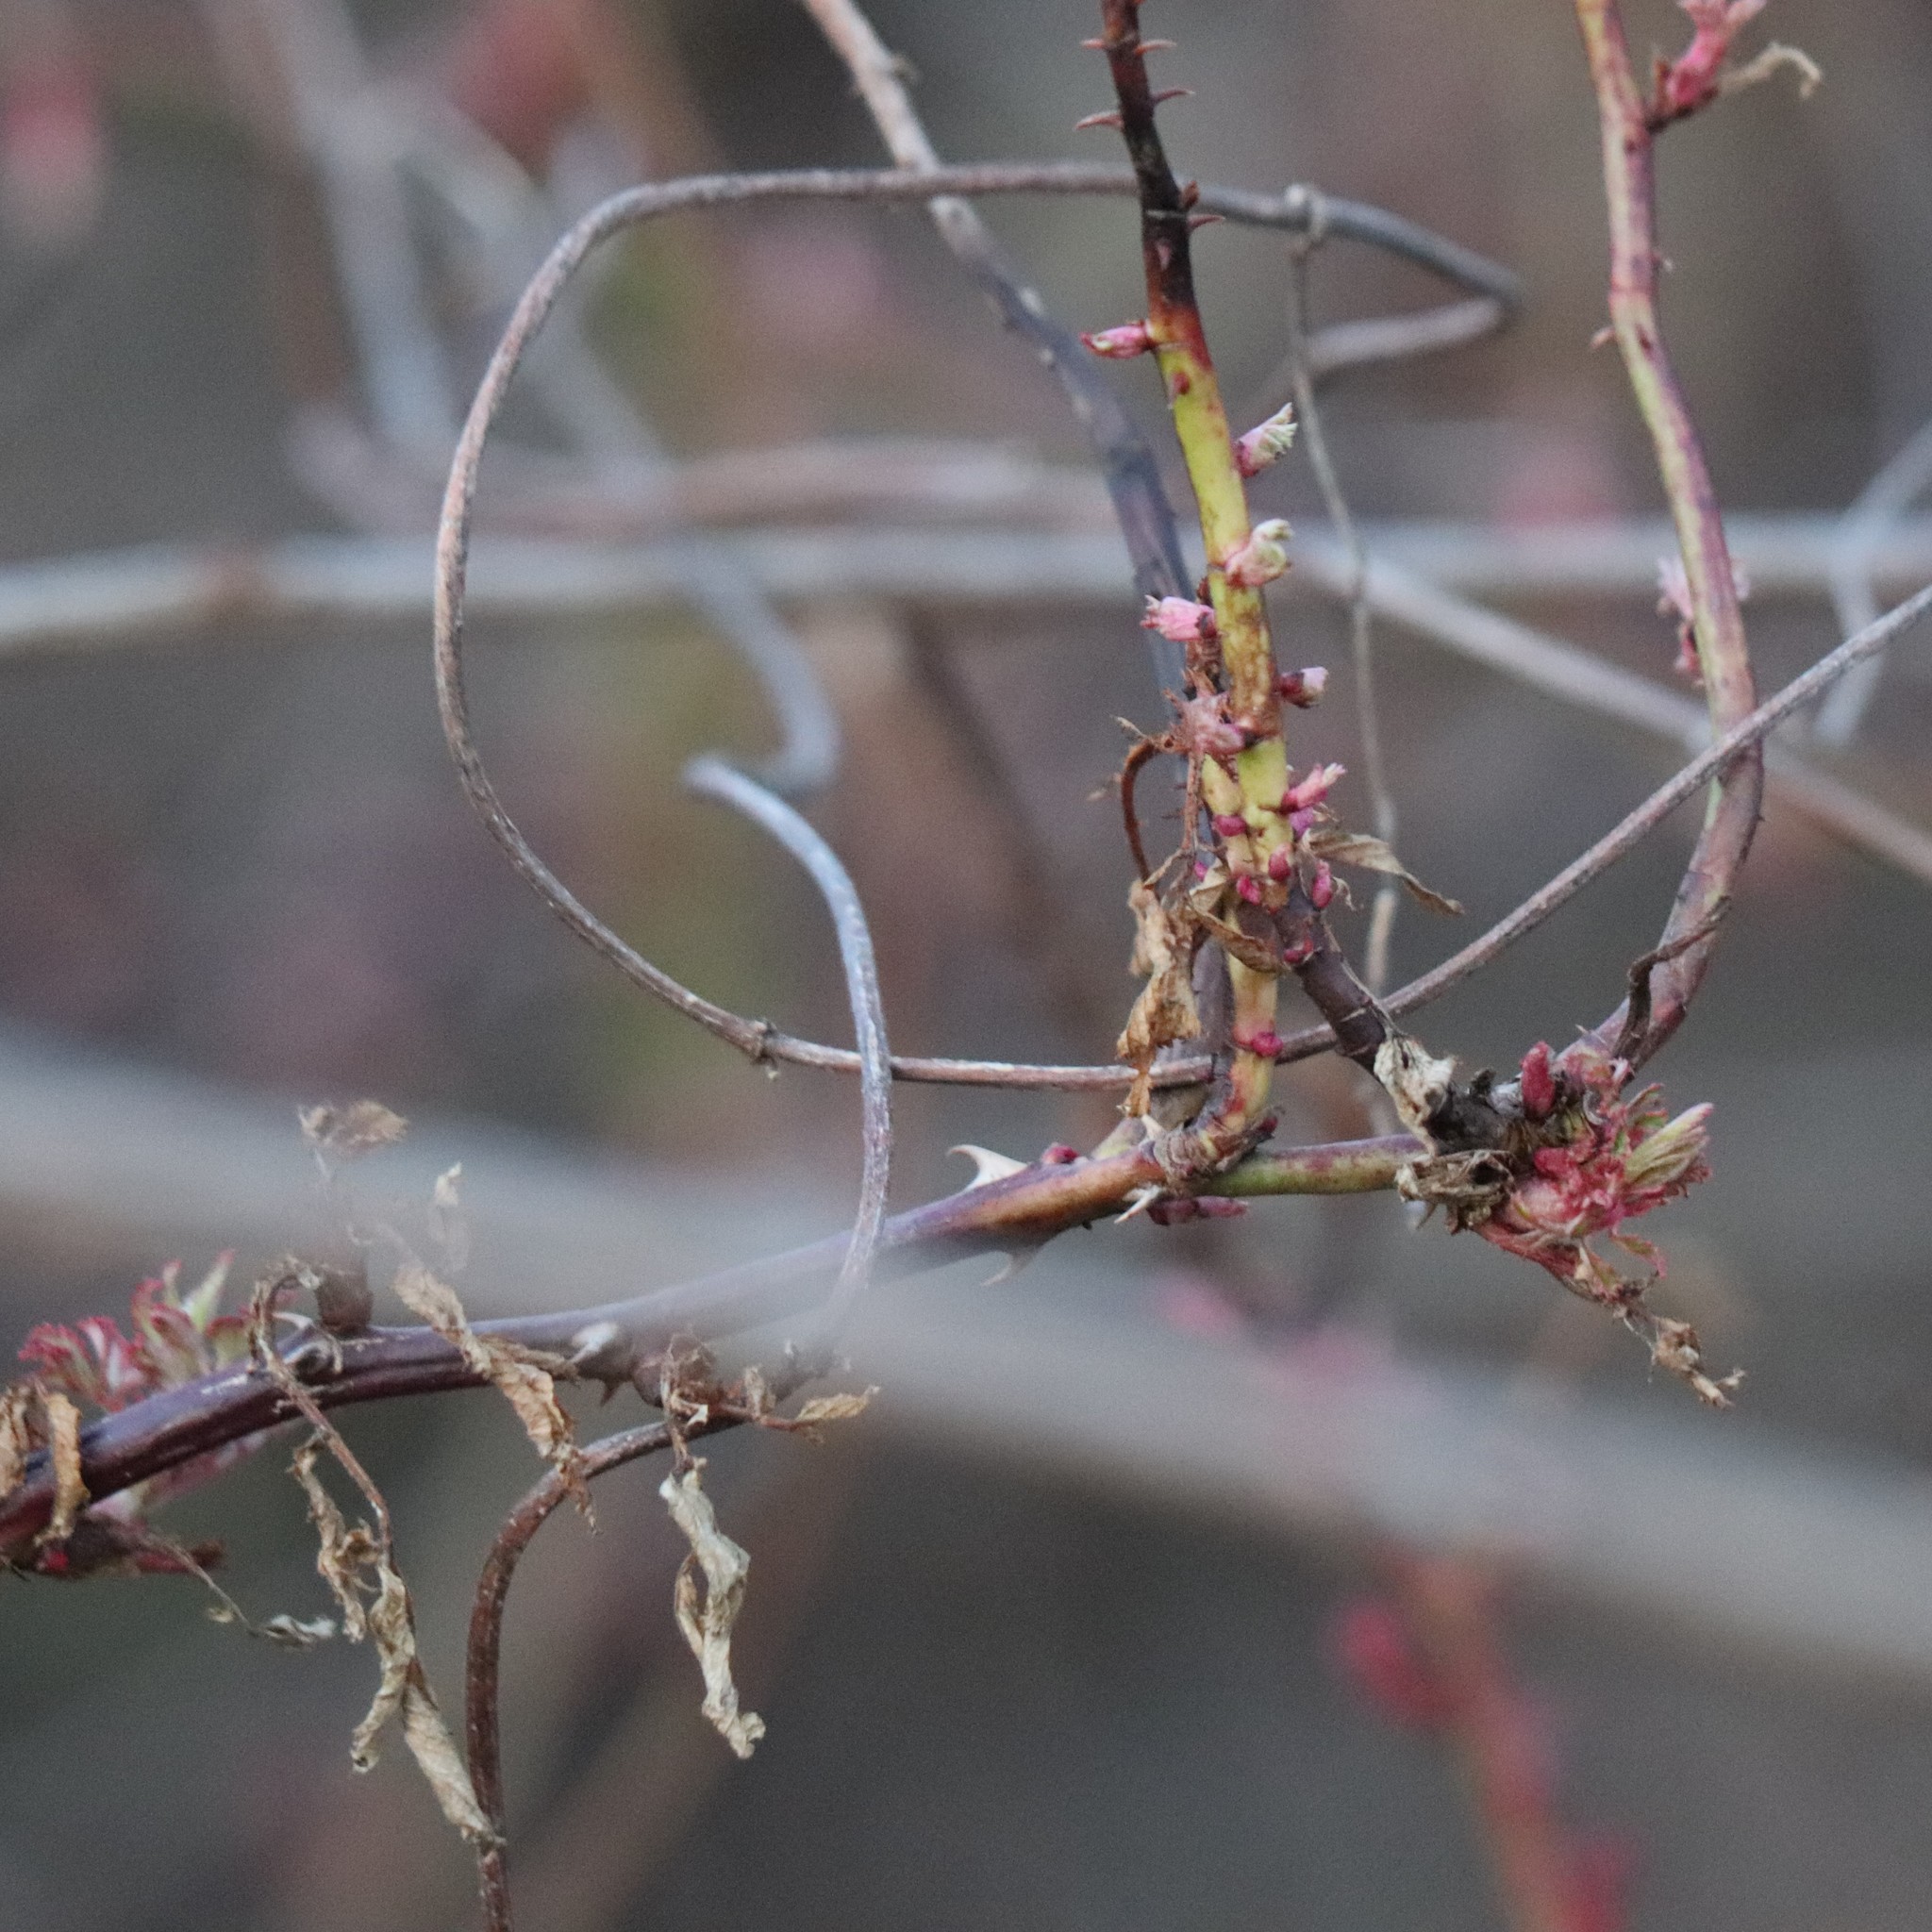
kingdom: Viruses
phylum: Negarnaviricota
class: Ellioviricetes
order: Bunyavirales
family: Fimoviridae
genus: Emaravirus
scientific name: Emaravirus rosae
